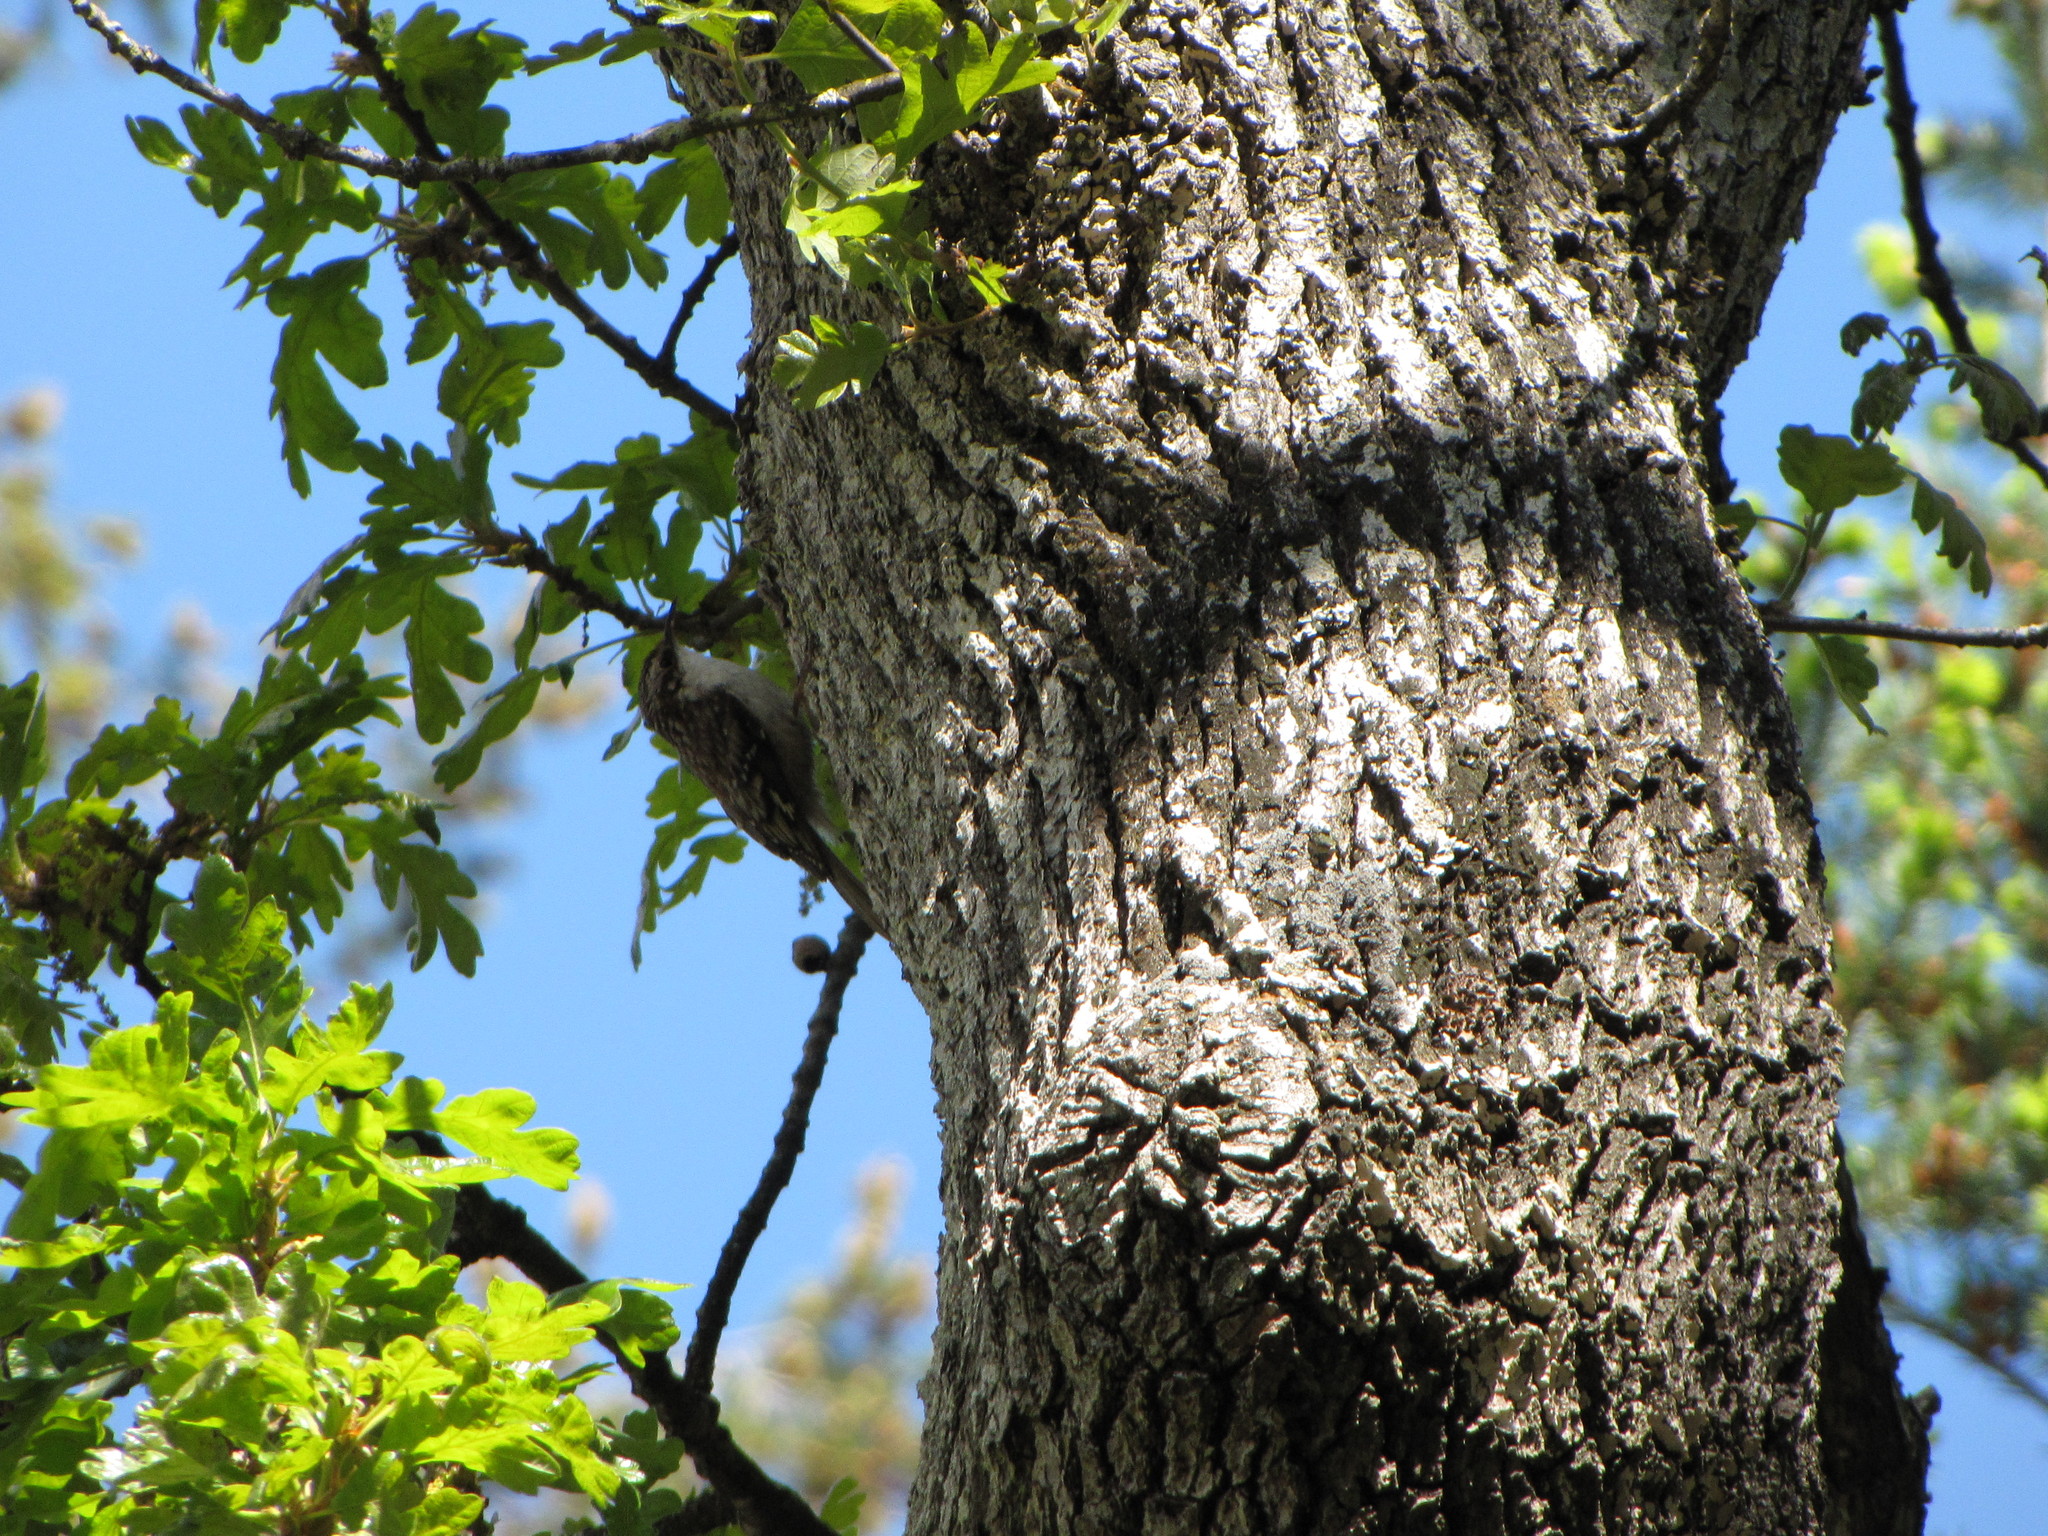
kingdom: Animalia
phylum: Chordata
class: Aves
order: Passeriformes
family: Certhiidae
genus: Certhia
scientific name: Certhia americana
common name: Brown creeper
